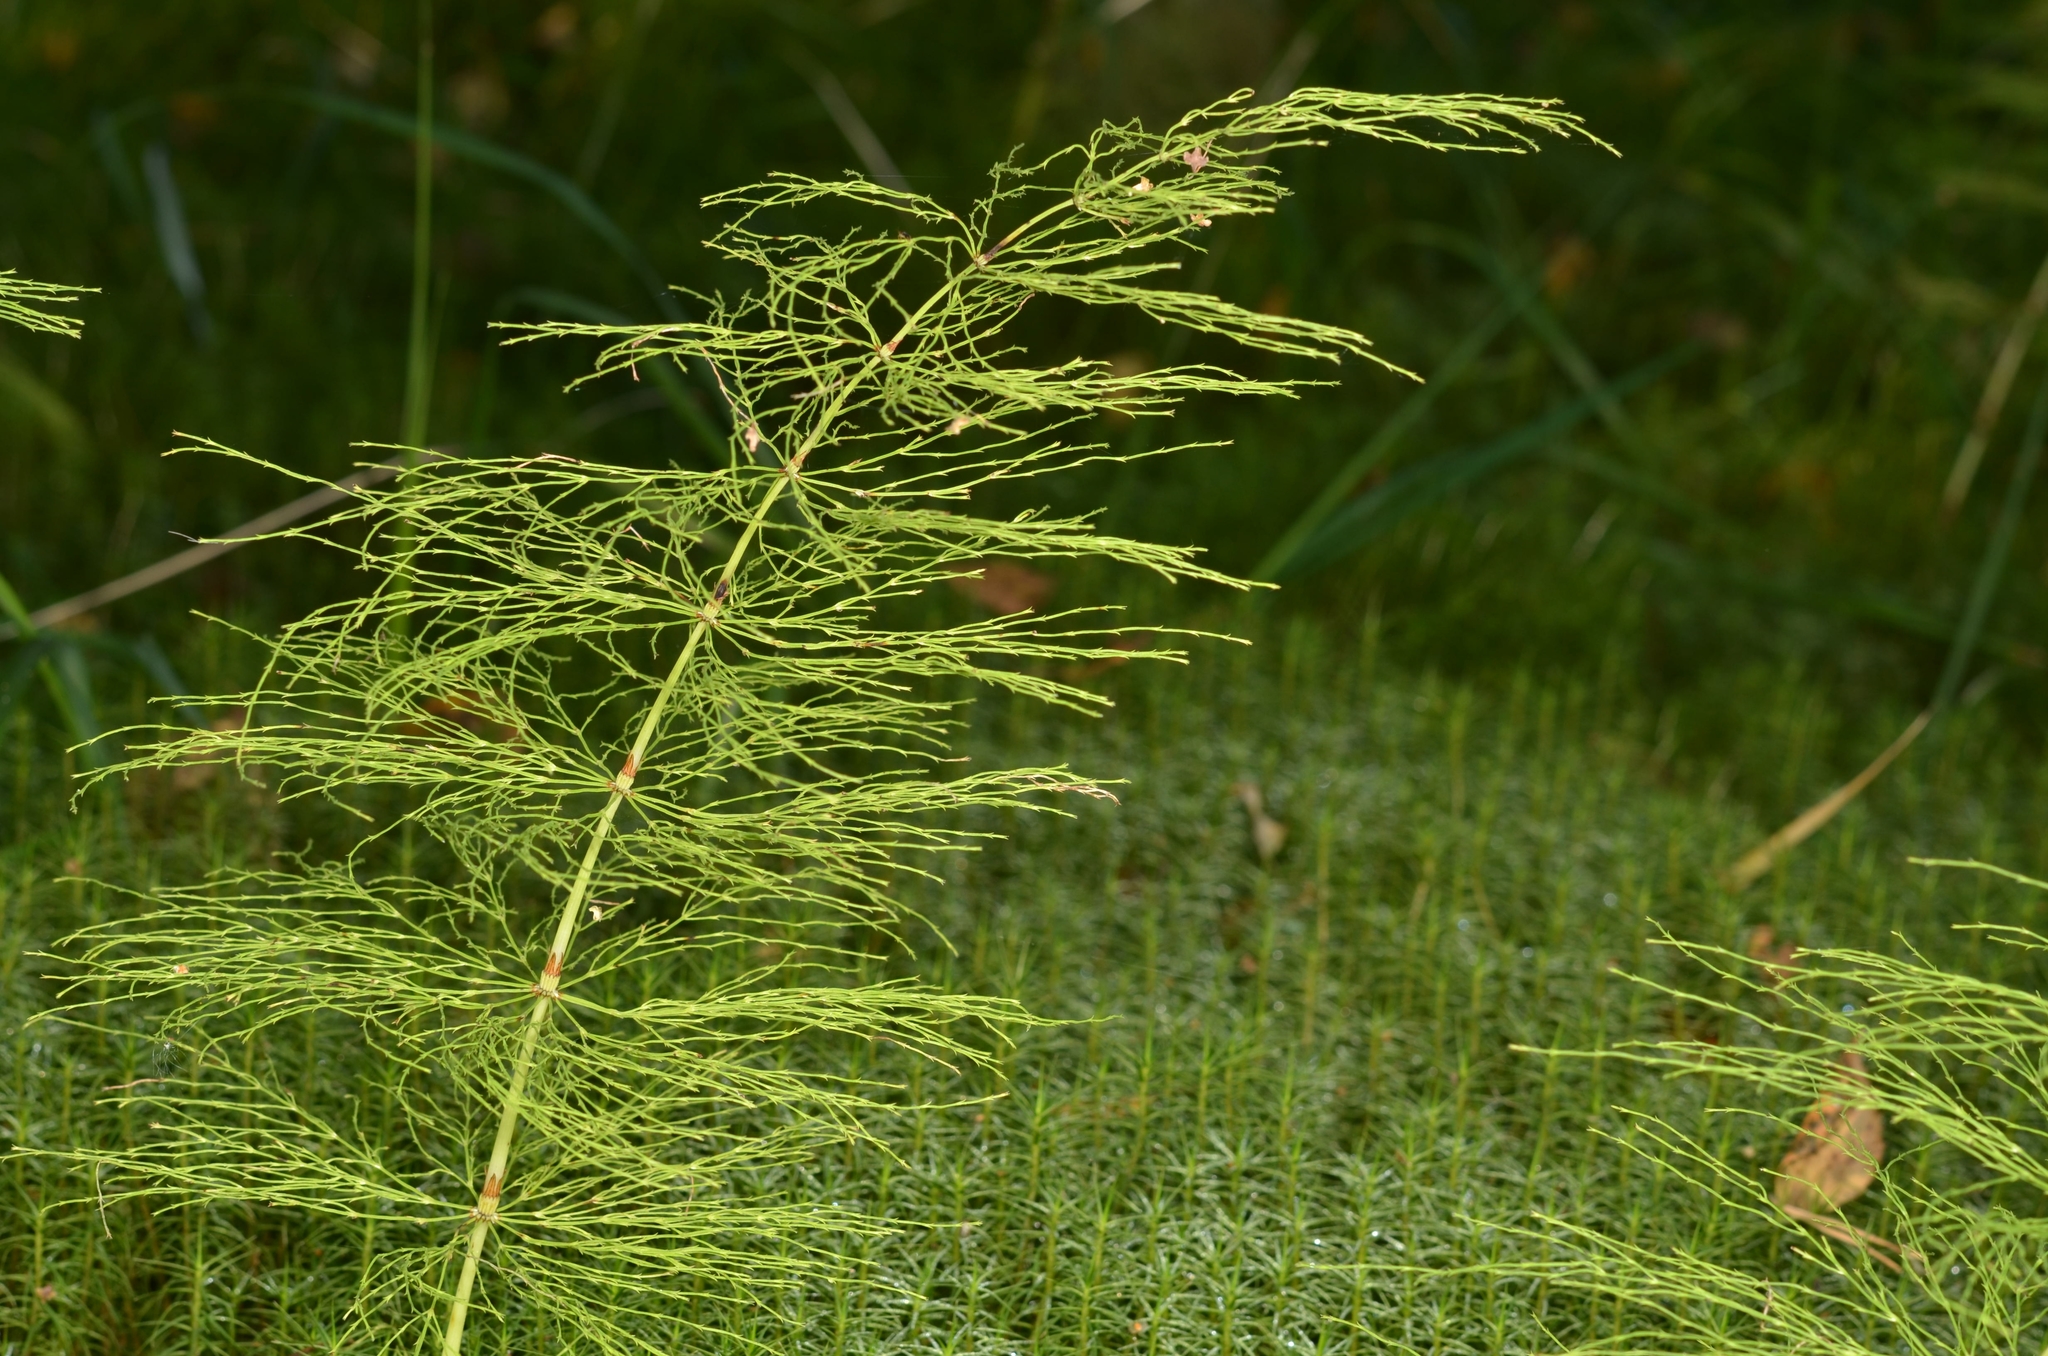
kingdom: Plantae
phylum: Tracheophyta
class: Polypodiopsida
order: Equisetales
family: Equisetaceae
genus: Equisetum
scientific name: Equisetum sylvaticum
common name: Wood horsetail
